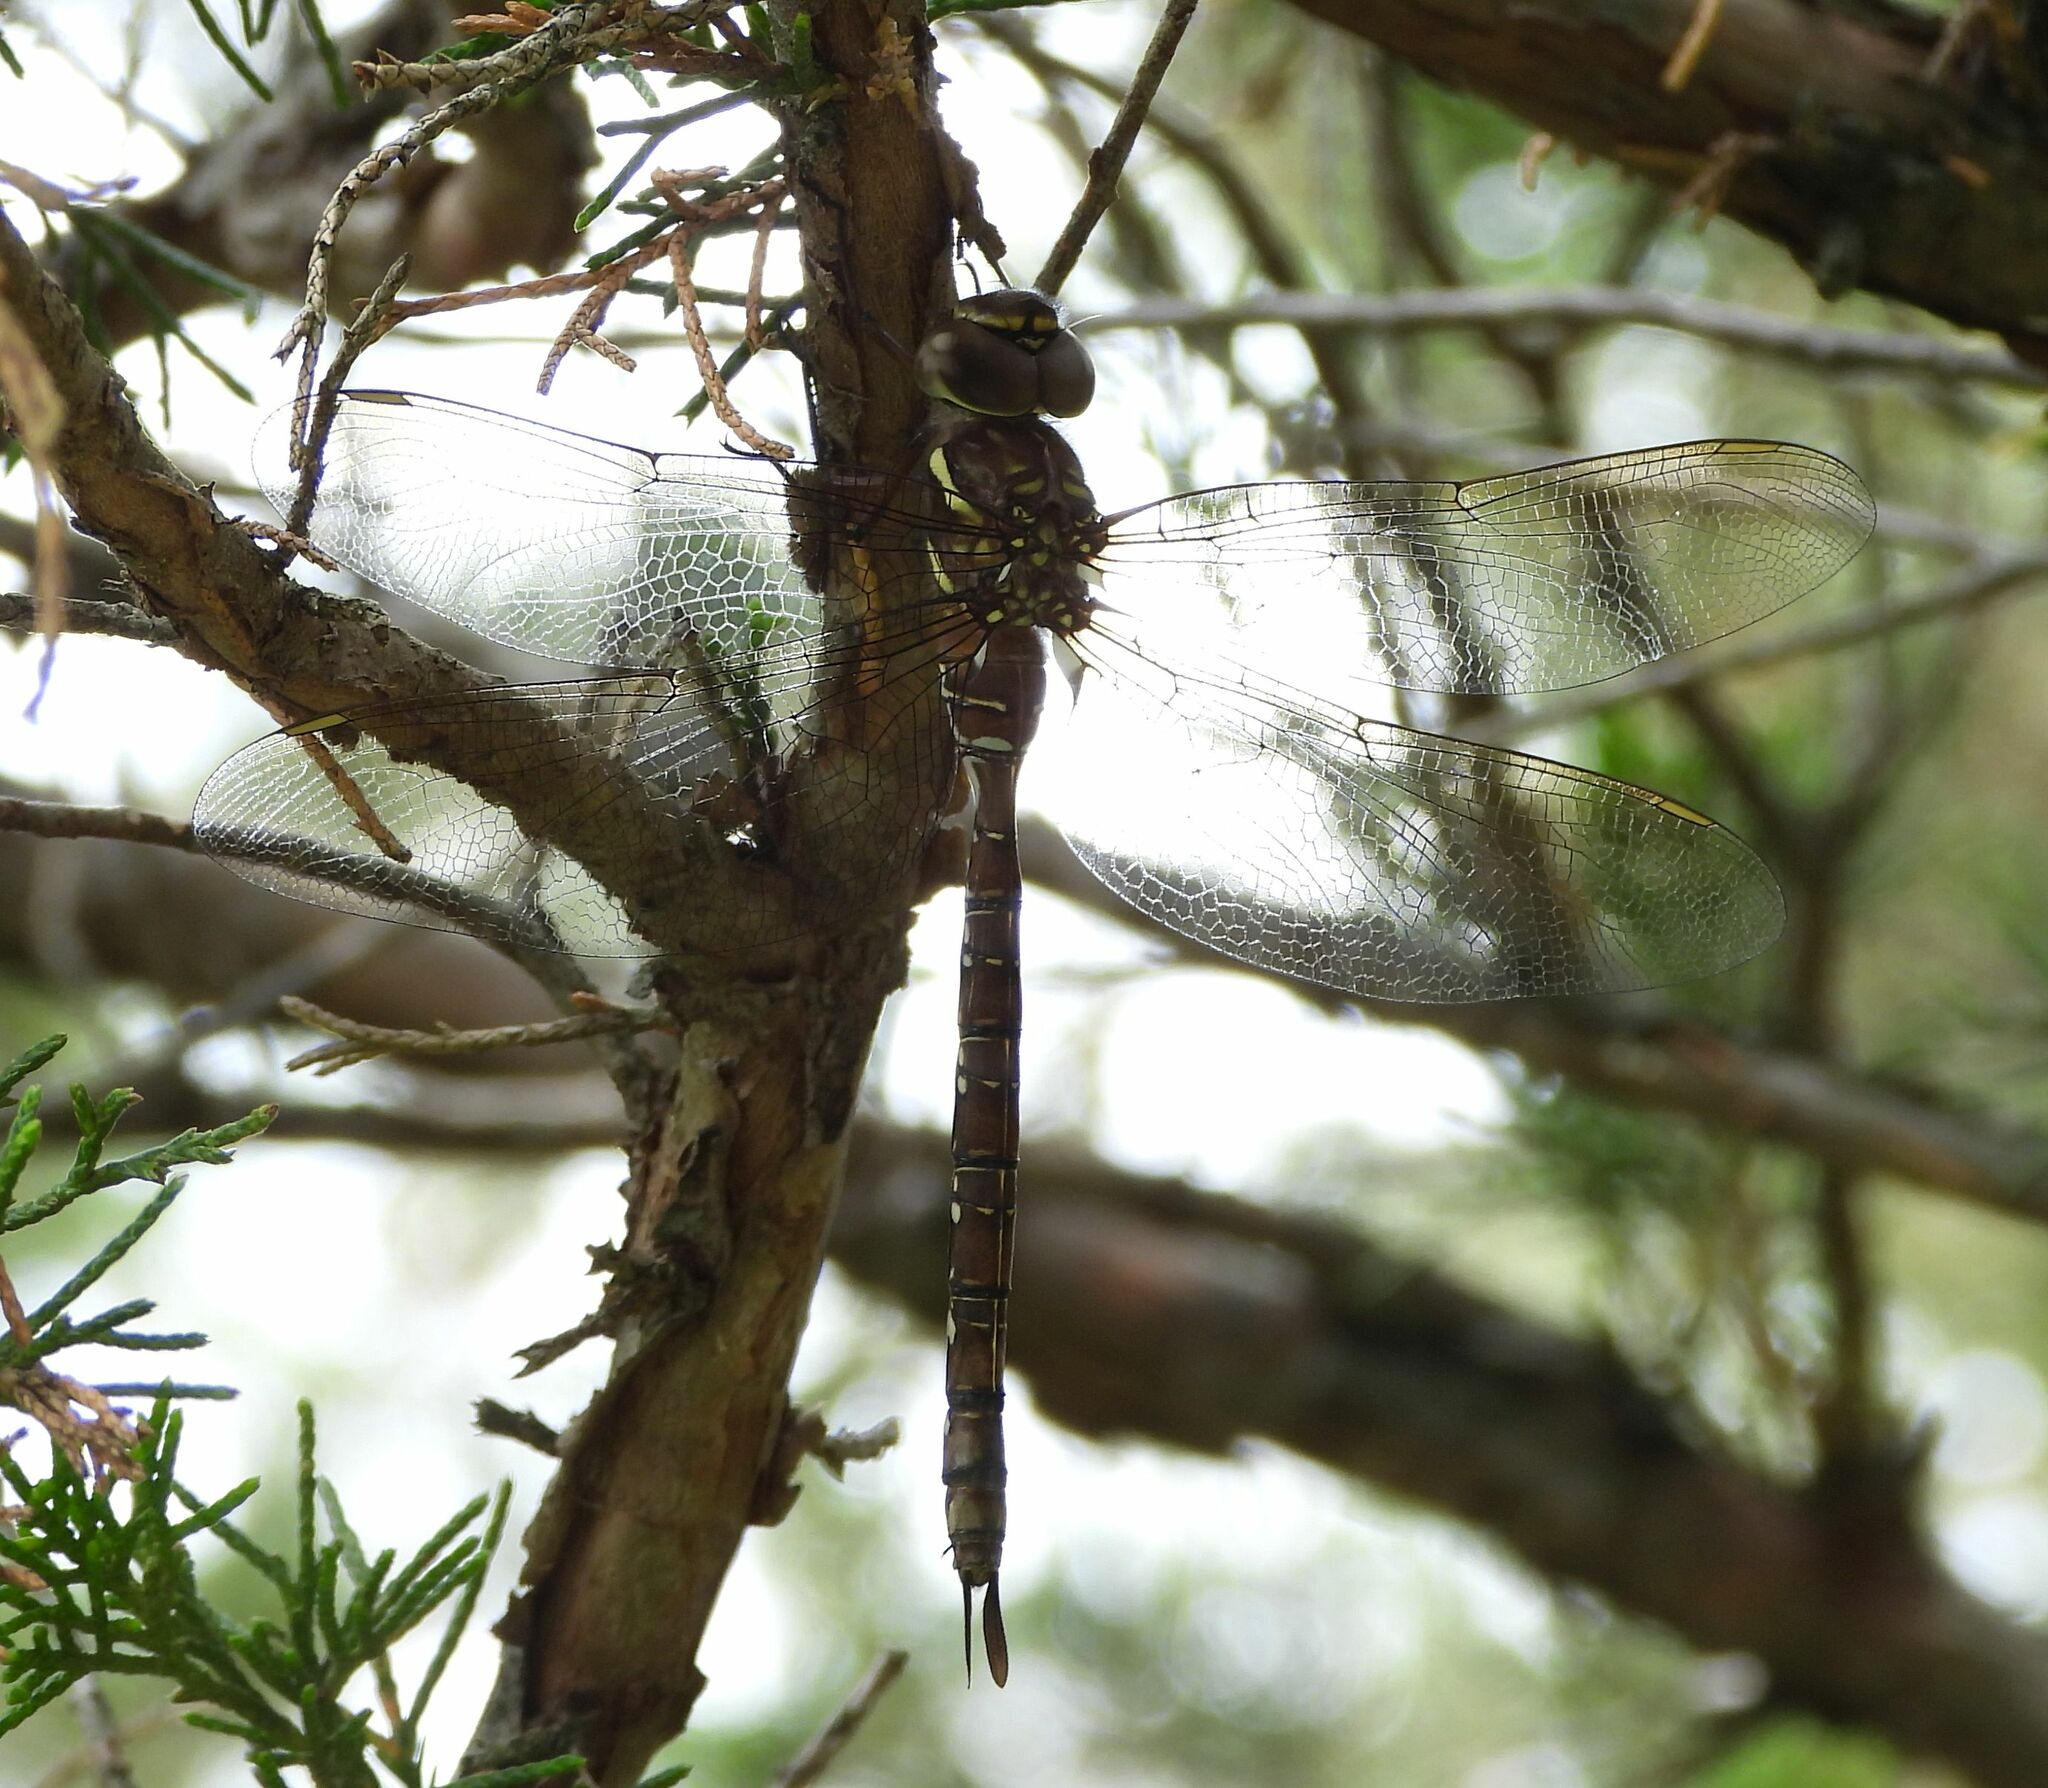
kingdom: Animalia
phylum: Arthropoda
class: Insecta
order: Odonata
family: Aeshnidae
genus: Aeshna
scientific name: Aeshna umbrosa
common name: Shadow darner
